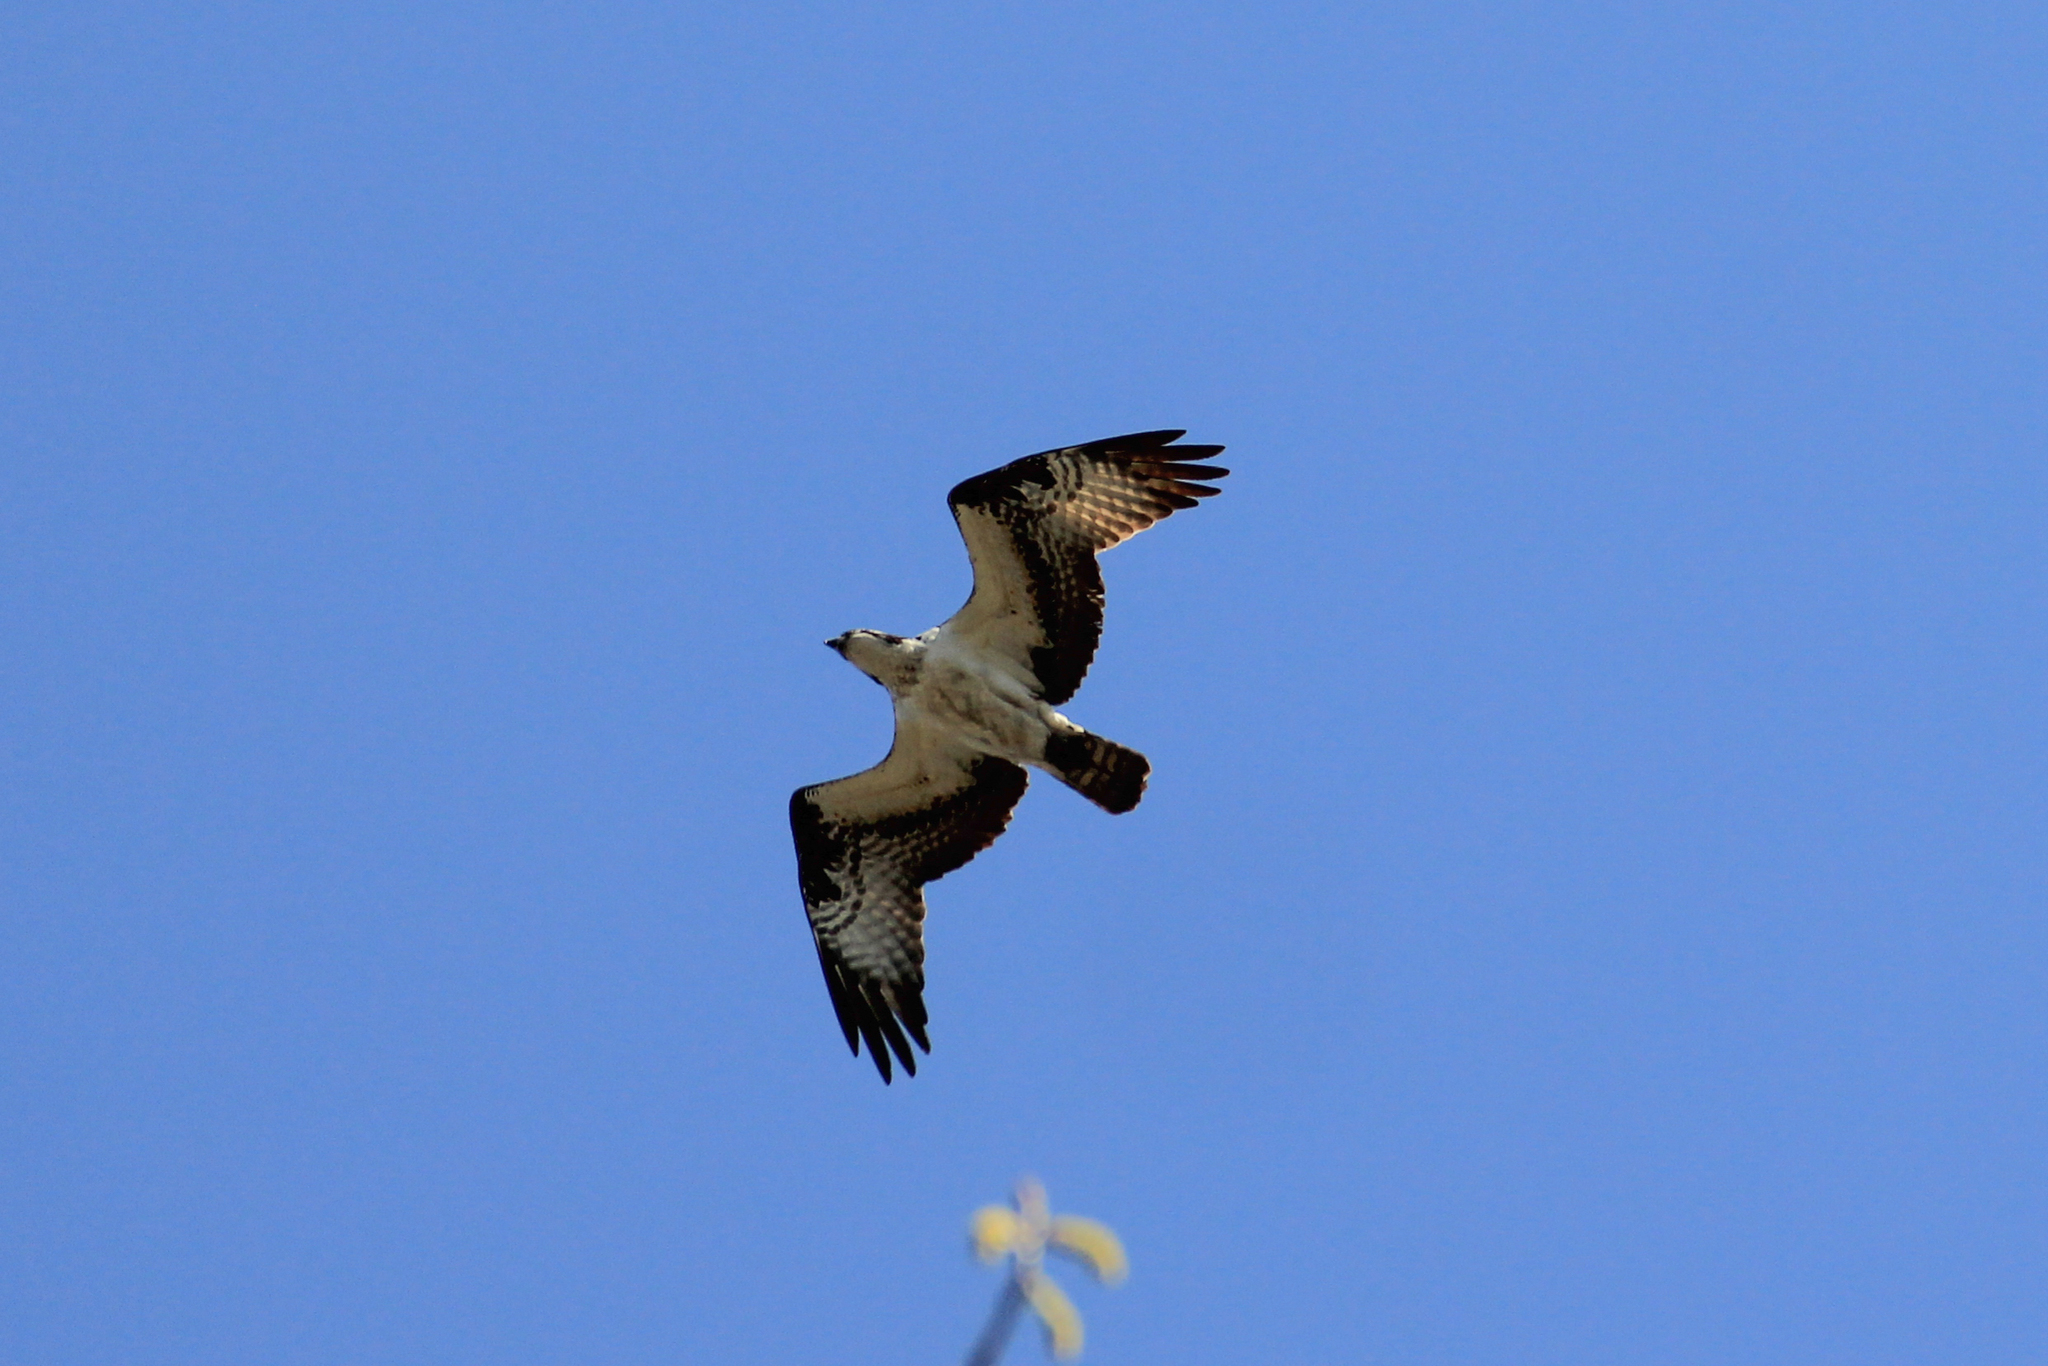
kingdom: Animalia
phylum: Chordata
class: Aves
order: Accipitriformes
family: Pandionidae
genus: Pandion
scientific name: Pandion haliaetus
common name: Osprey
